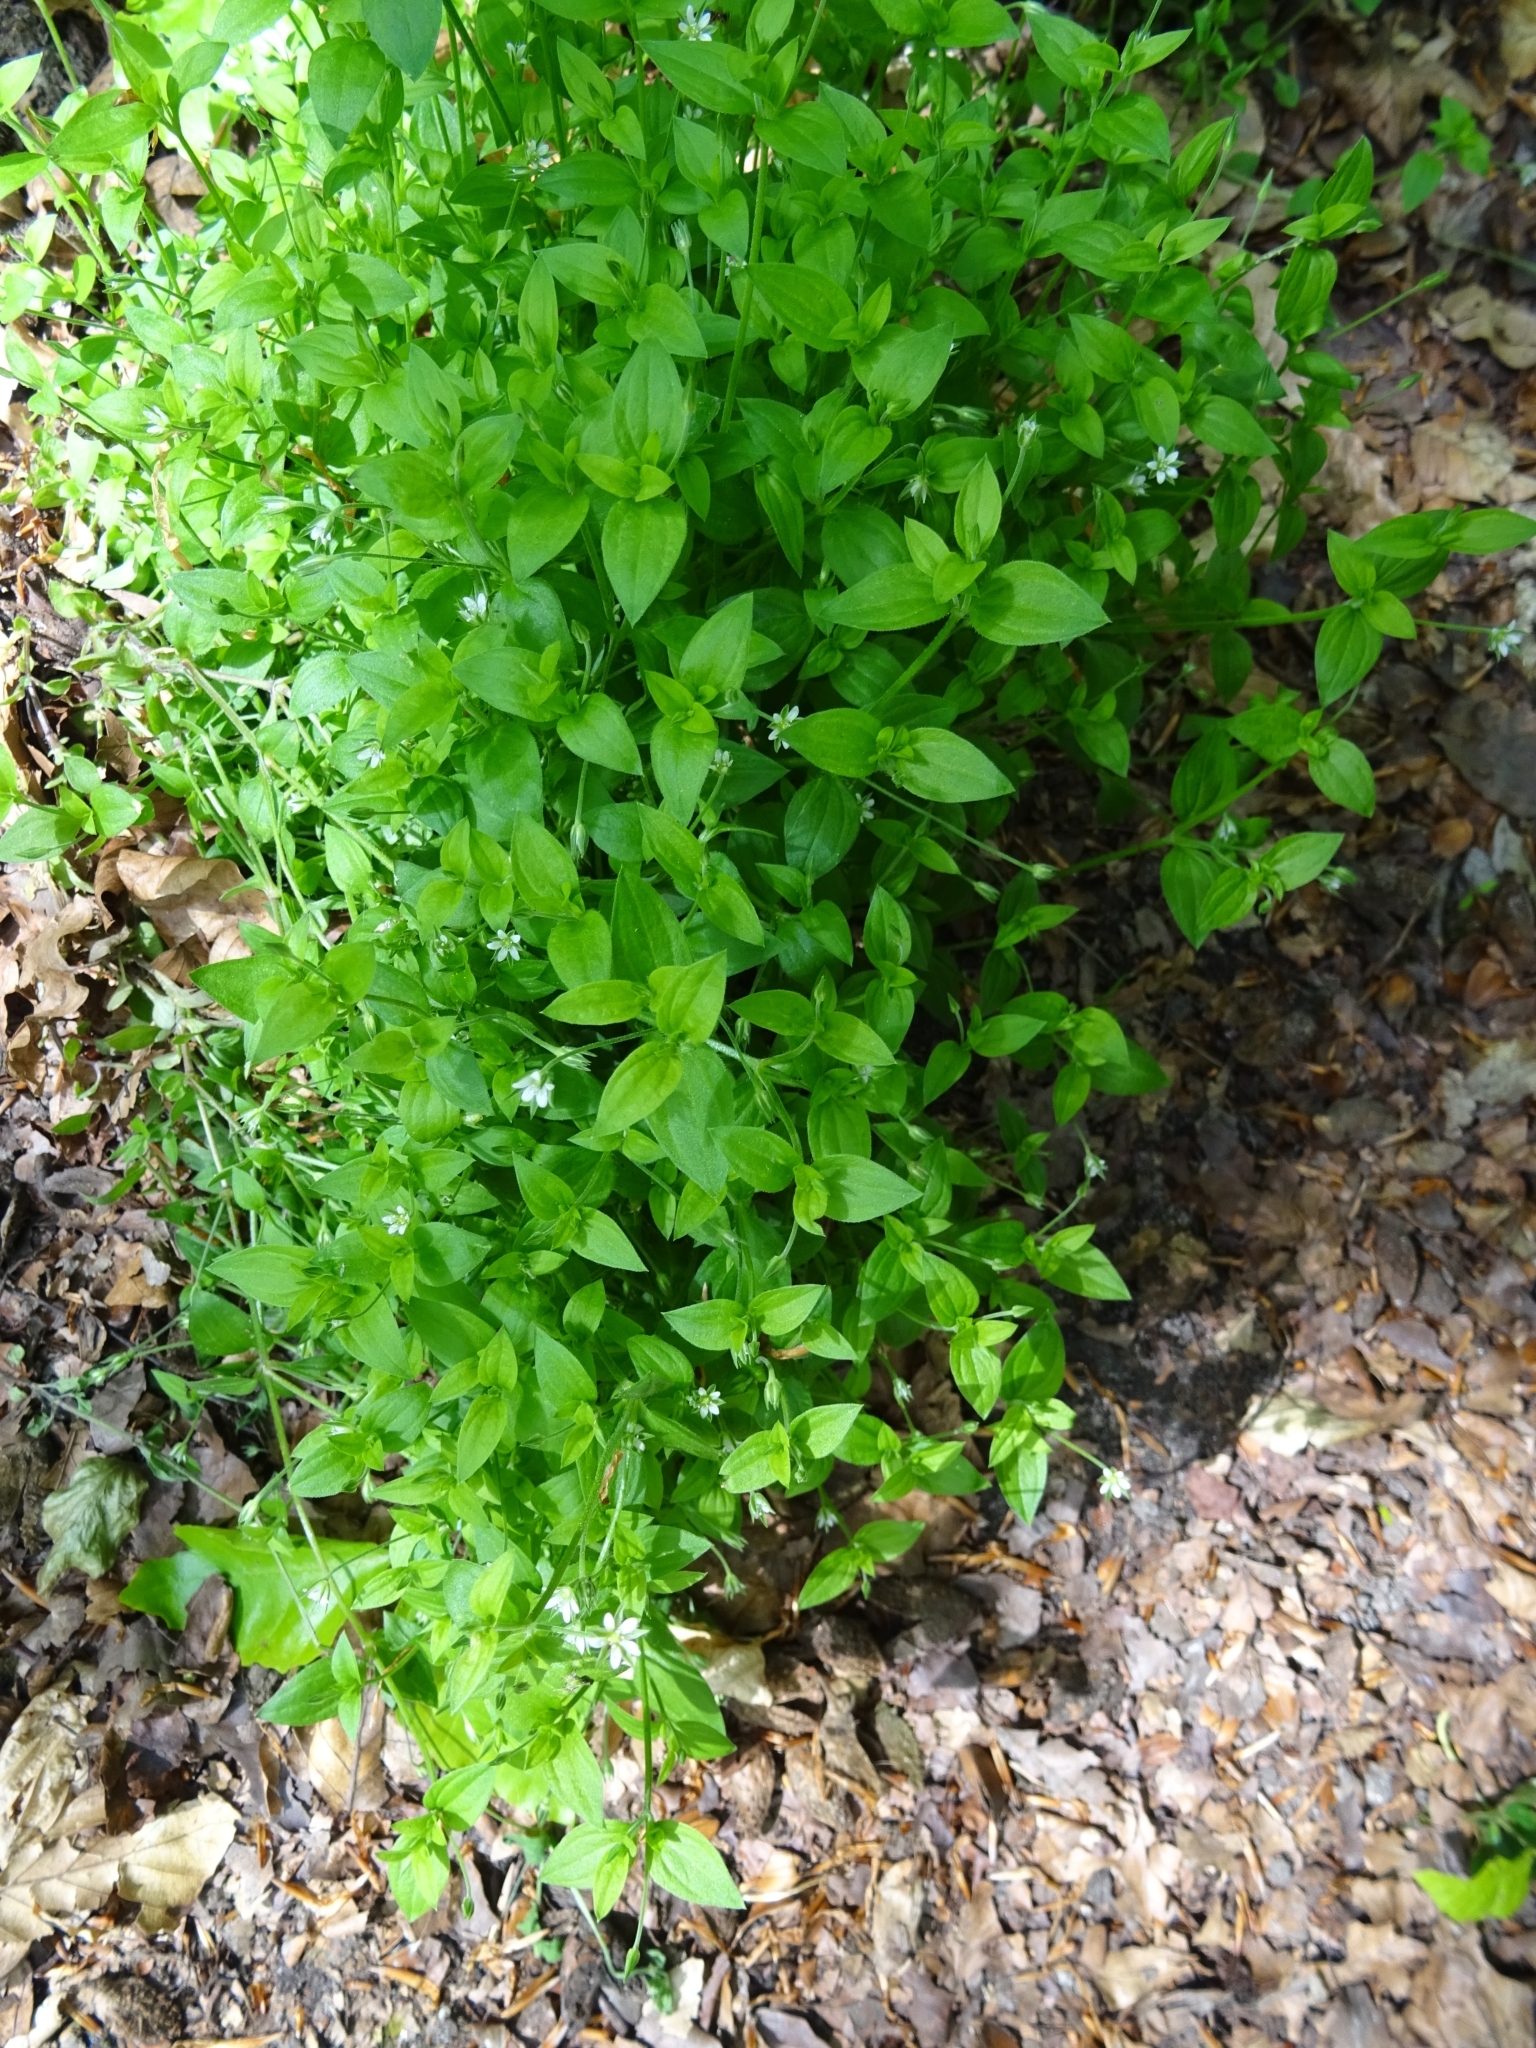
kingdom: Plantae
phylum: Tracheophyta
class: Magnoliopsida
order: Caryophyllales
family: Caryophyllaceae
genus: Moehringia
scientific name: Moehringia trinervia
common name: Three-nerved sandwort
